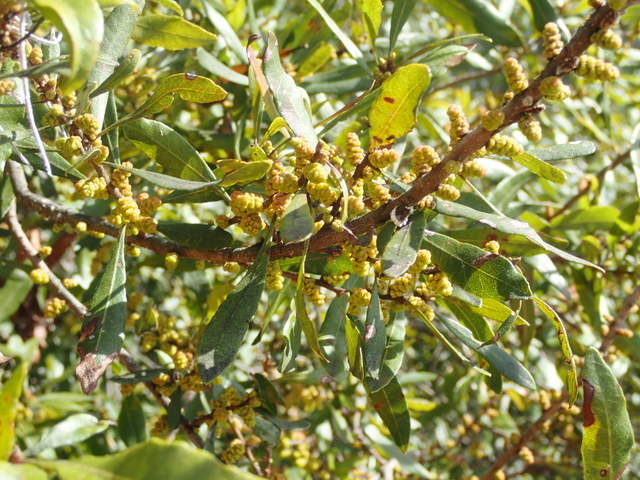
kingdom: Plantae
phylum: Tracheophyta
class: Magnoliopsida
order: Fagales
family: Myricaceae
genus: Morella
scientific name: Morella cerifera
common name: Wax myrtle
